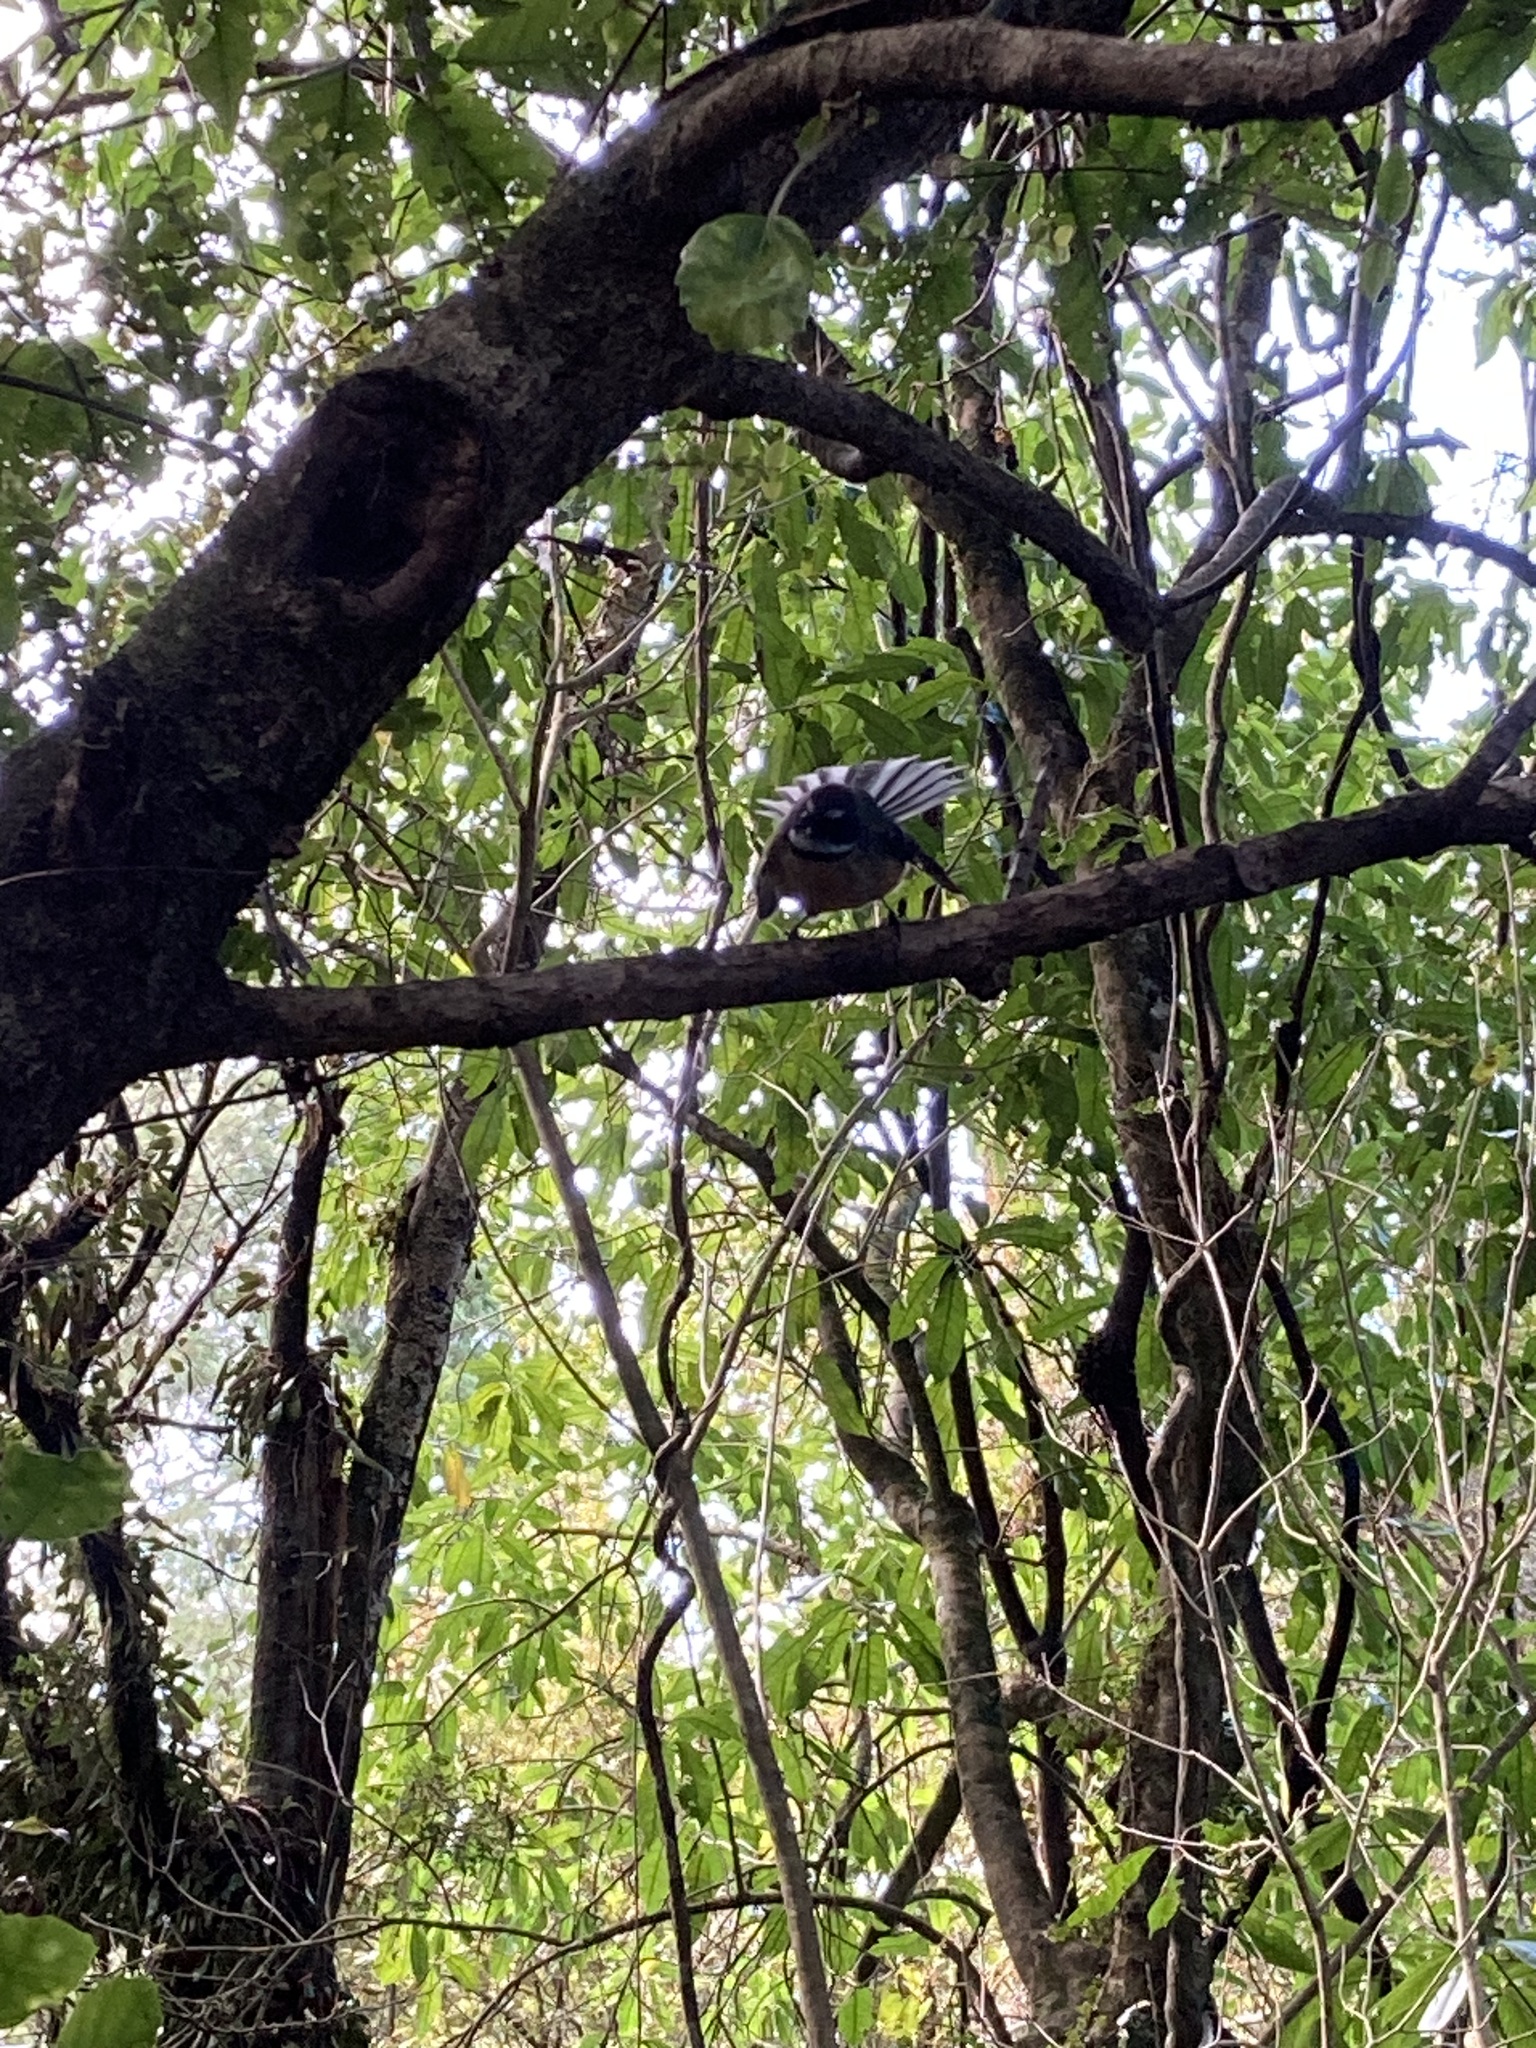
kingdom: Animalia
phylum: Chordata
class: Aves
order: Passeriformes
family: Rhipiduridae
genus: Rhipidura
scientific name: Rhipidura fuliginosa
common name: New zealand fantail
